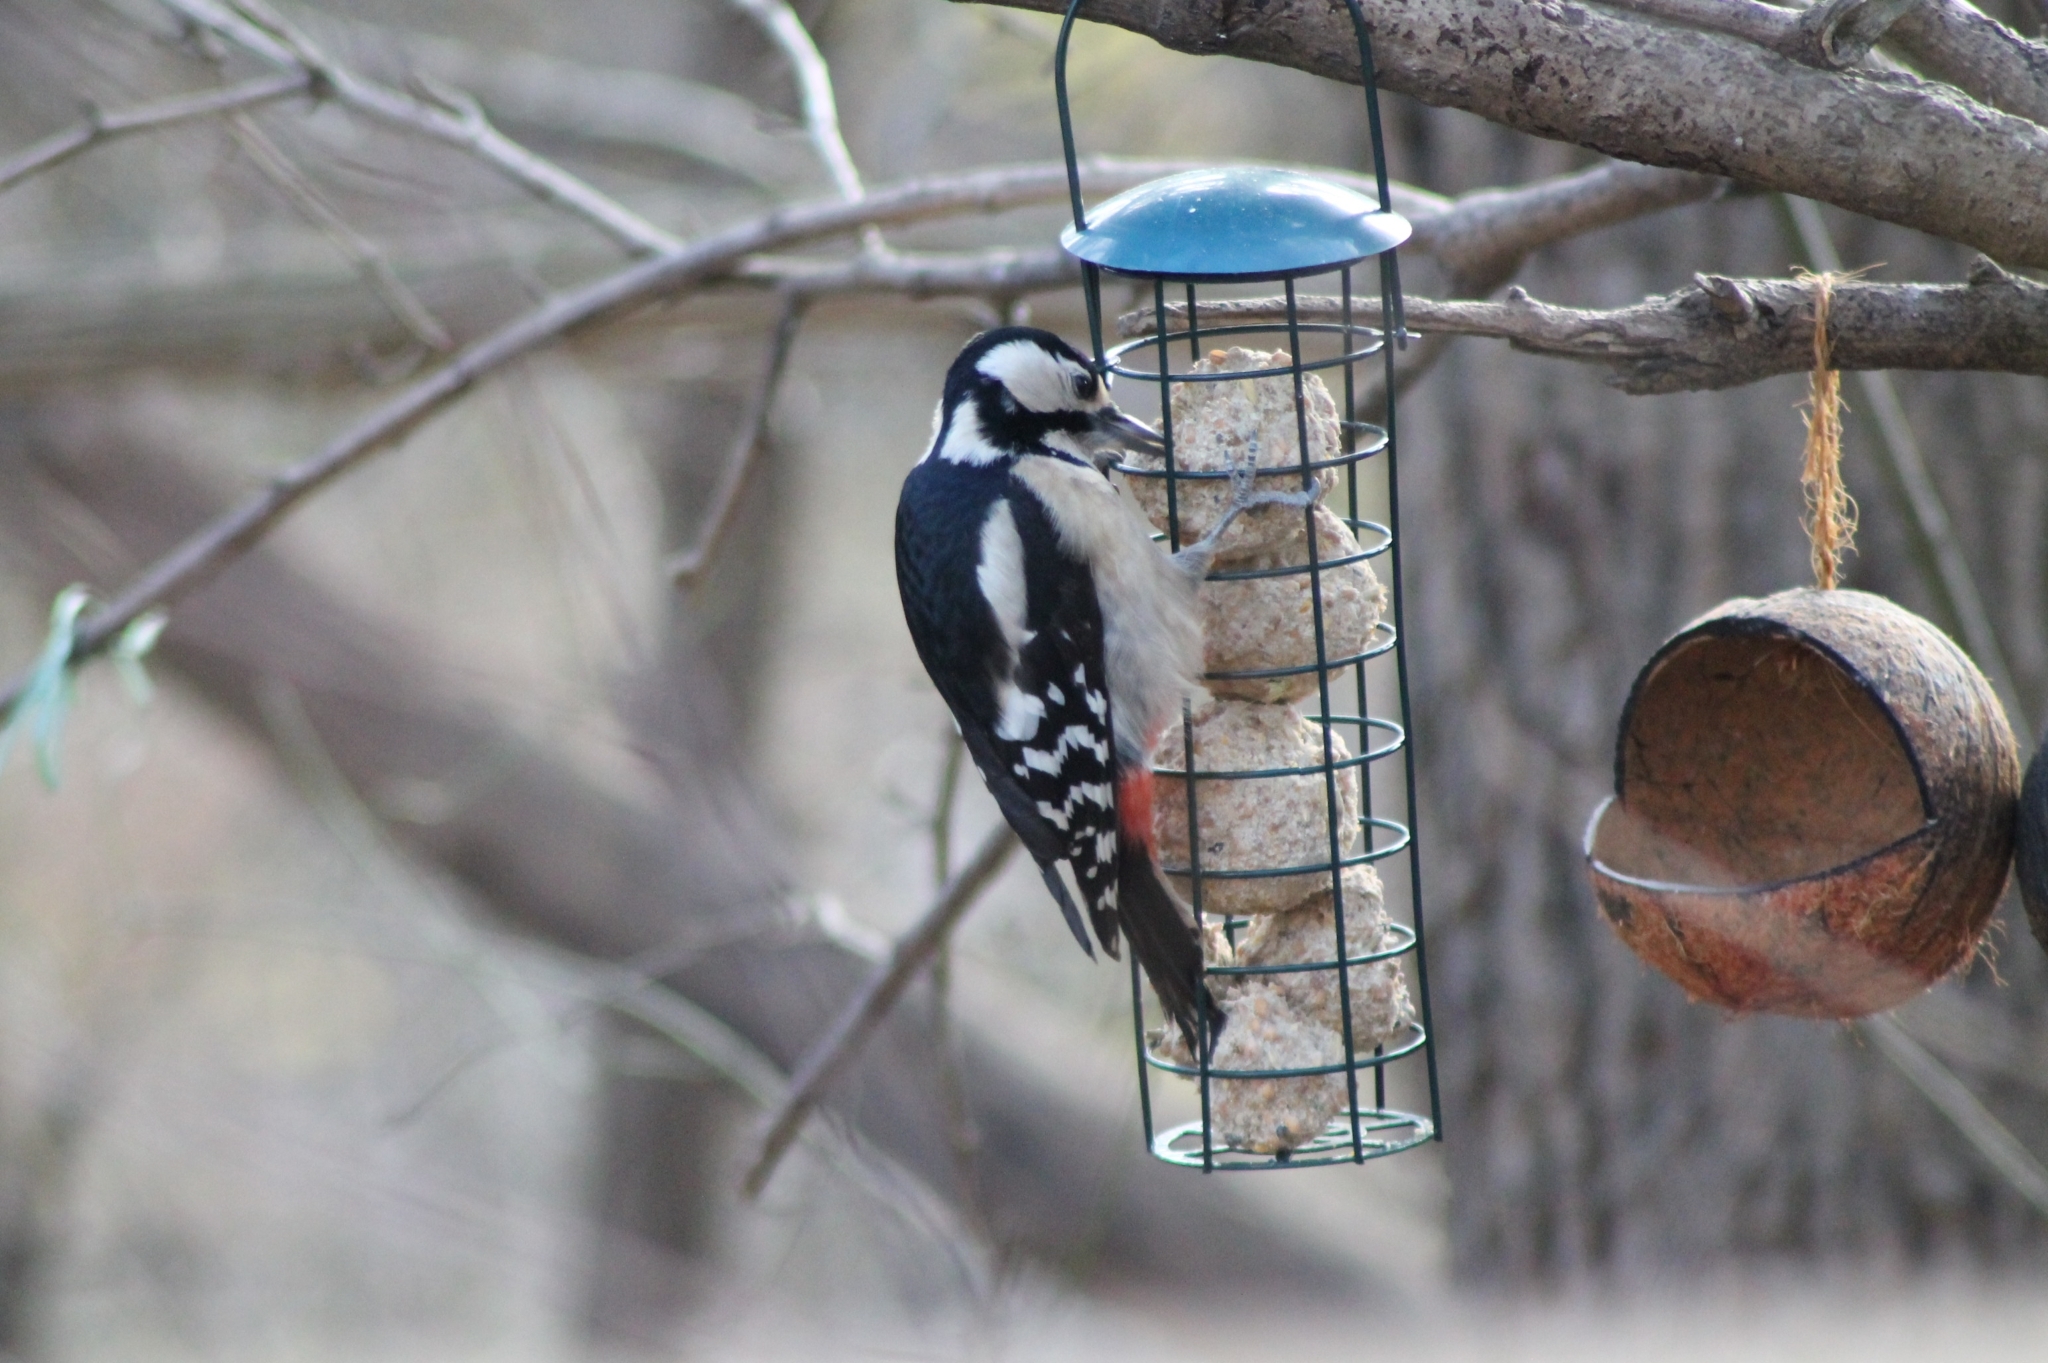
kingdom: Animalia
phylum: Chordata
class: Aves
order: Piciformes
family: Picidae
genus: Dendrocopos
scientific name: Dendrocopos major
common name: Great spotted woodpecker
